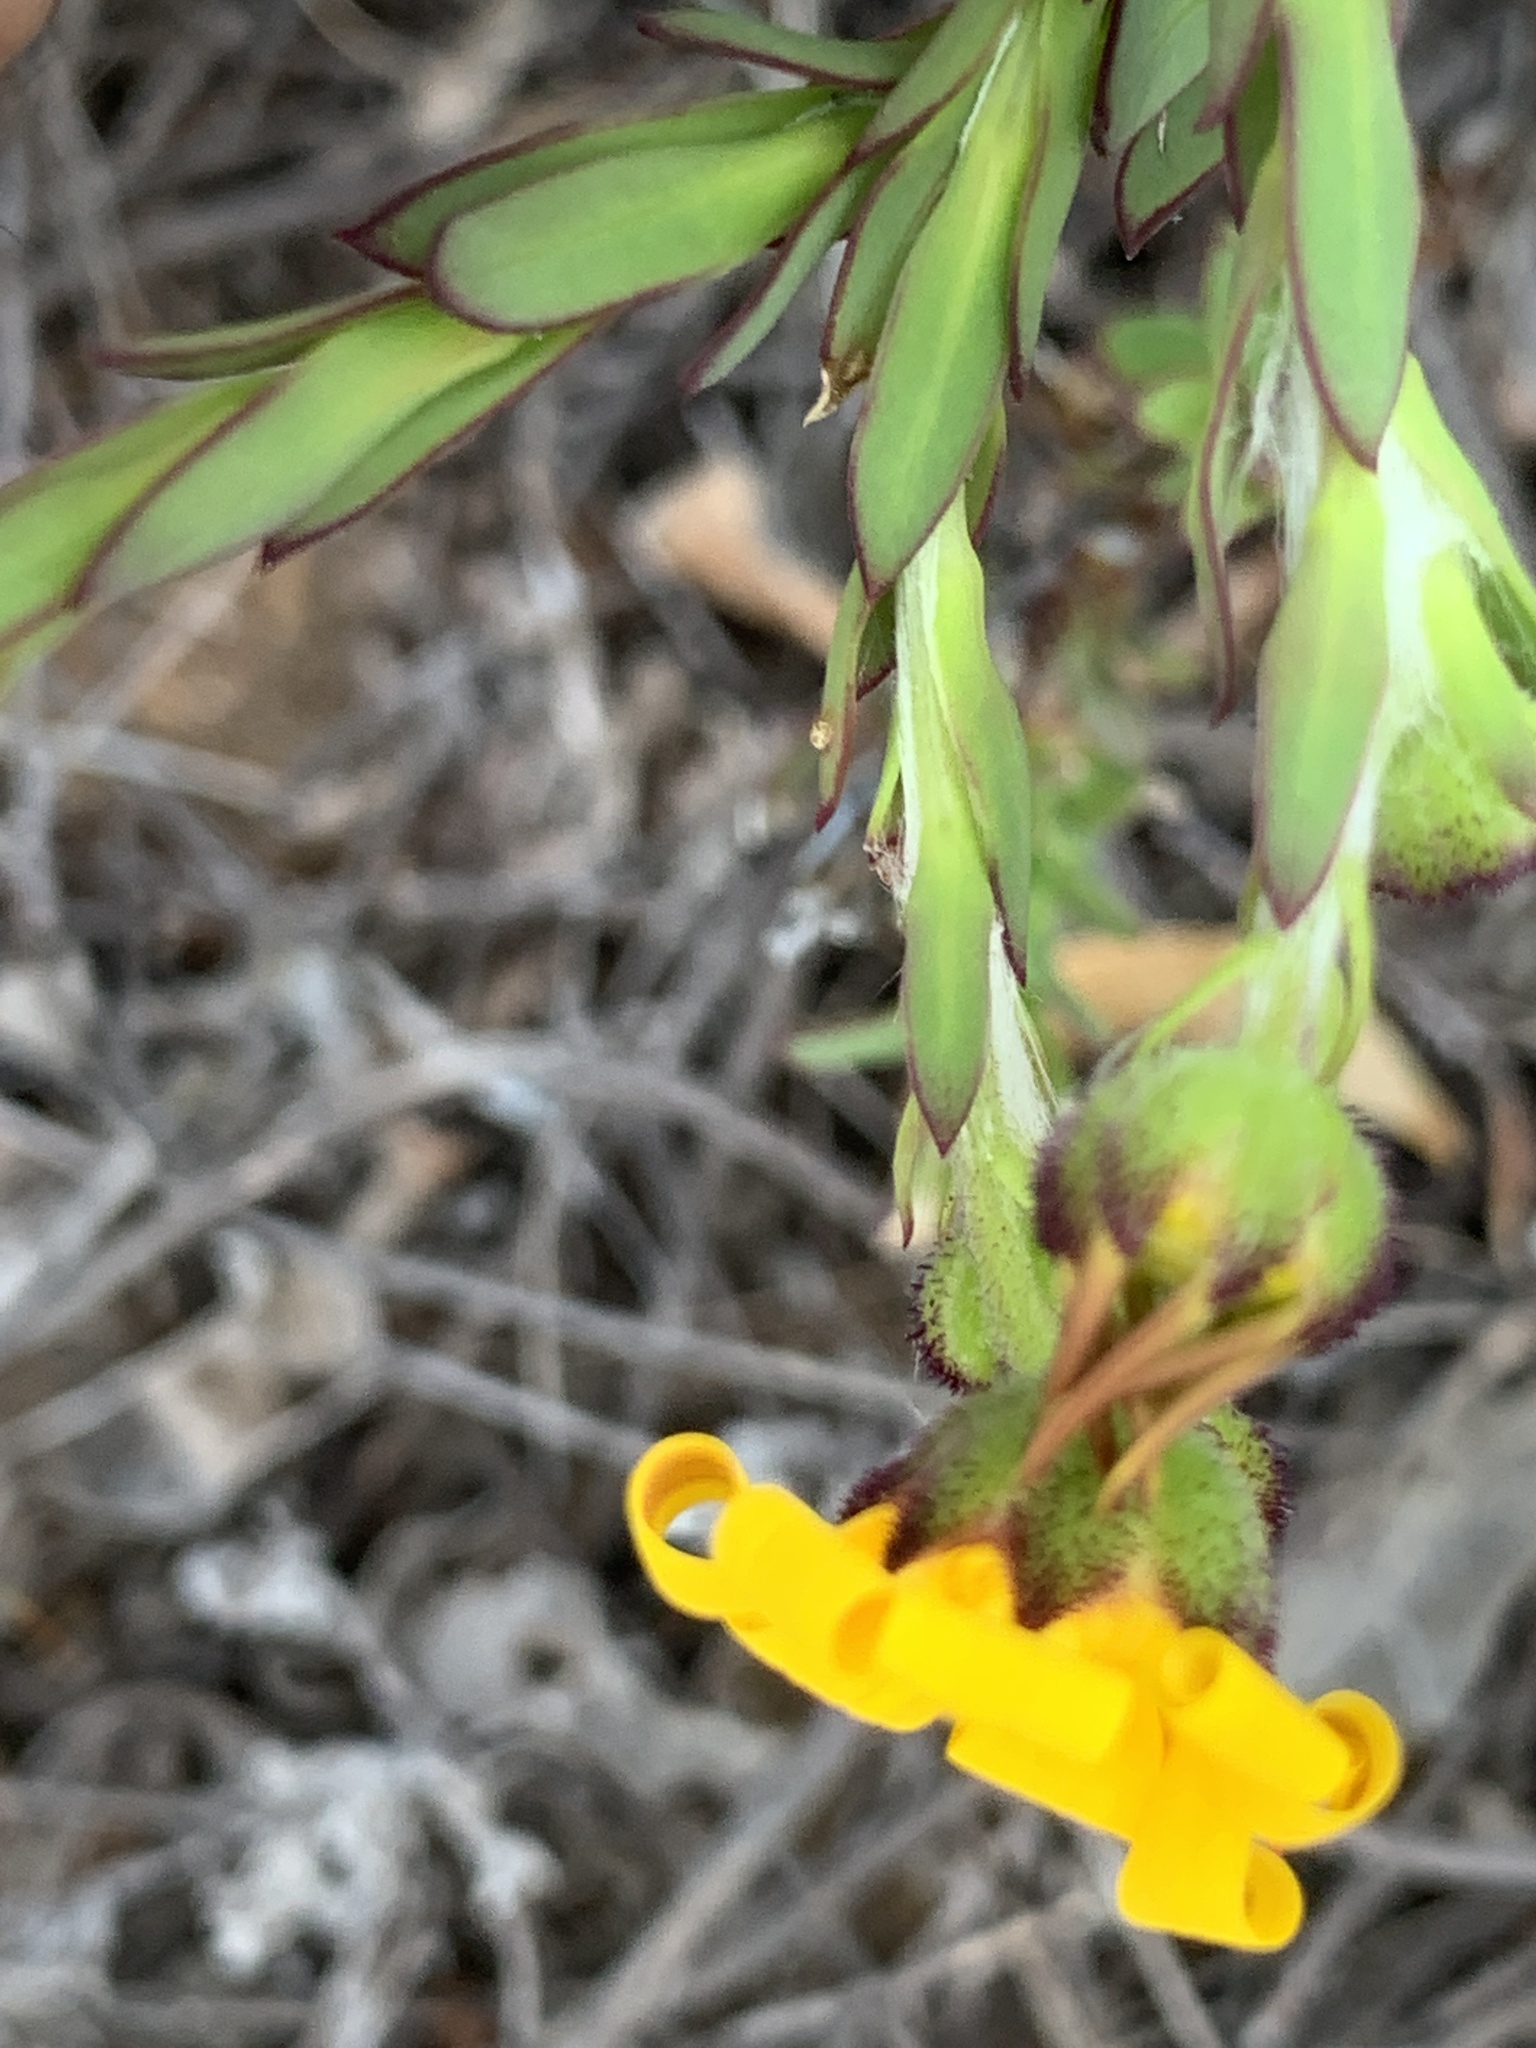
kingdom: Plantae
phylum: Tracheophyta
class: Magnoliopsida
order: Asterales
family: Asteraceae
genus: Osteospermum
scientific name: Osteospermum polygaloides
